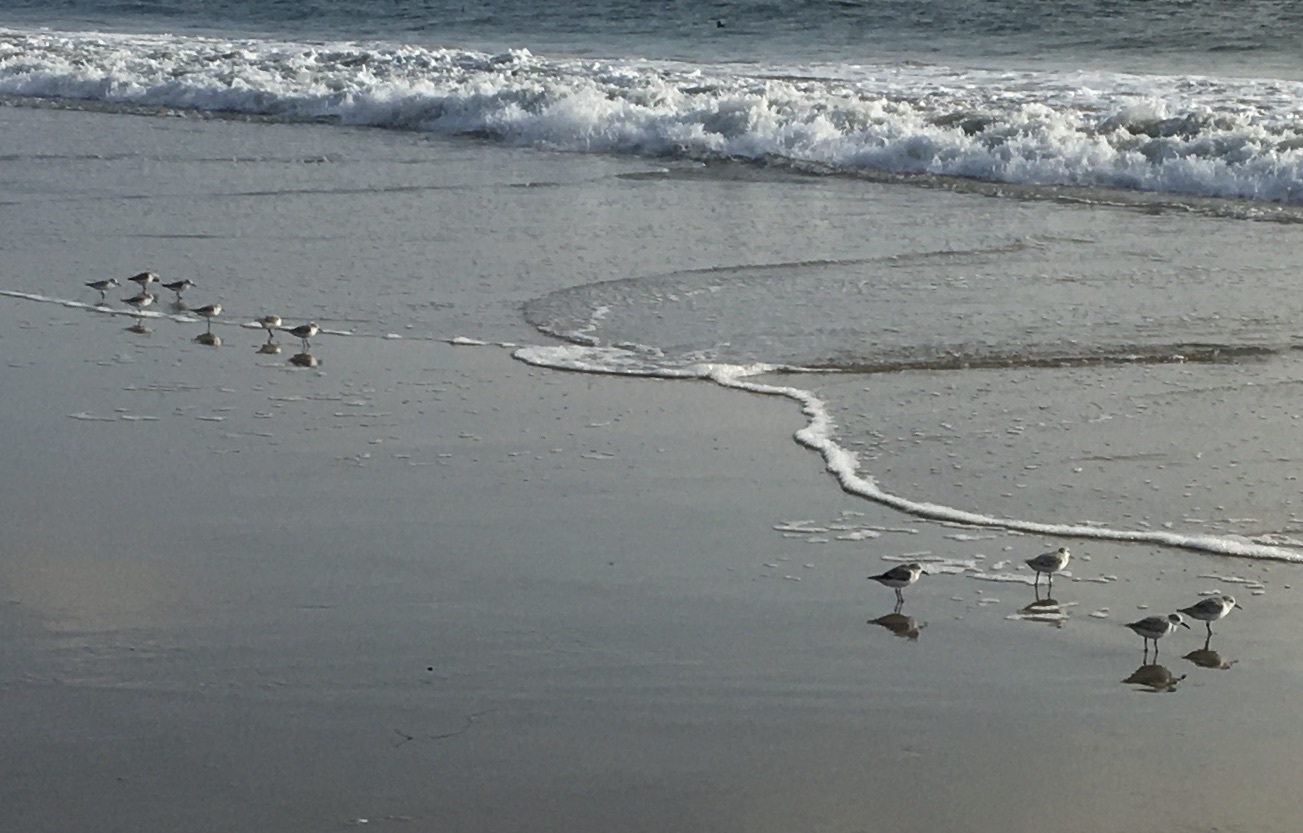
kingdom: Animalia
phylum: Chordata
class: Aves
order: Charadriiformes
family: Scolopacidae
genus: Calidris
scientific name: Calidris alba
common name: Sanderling
